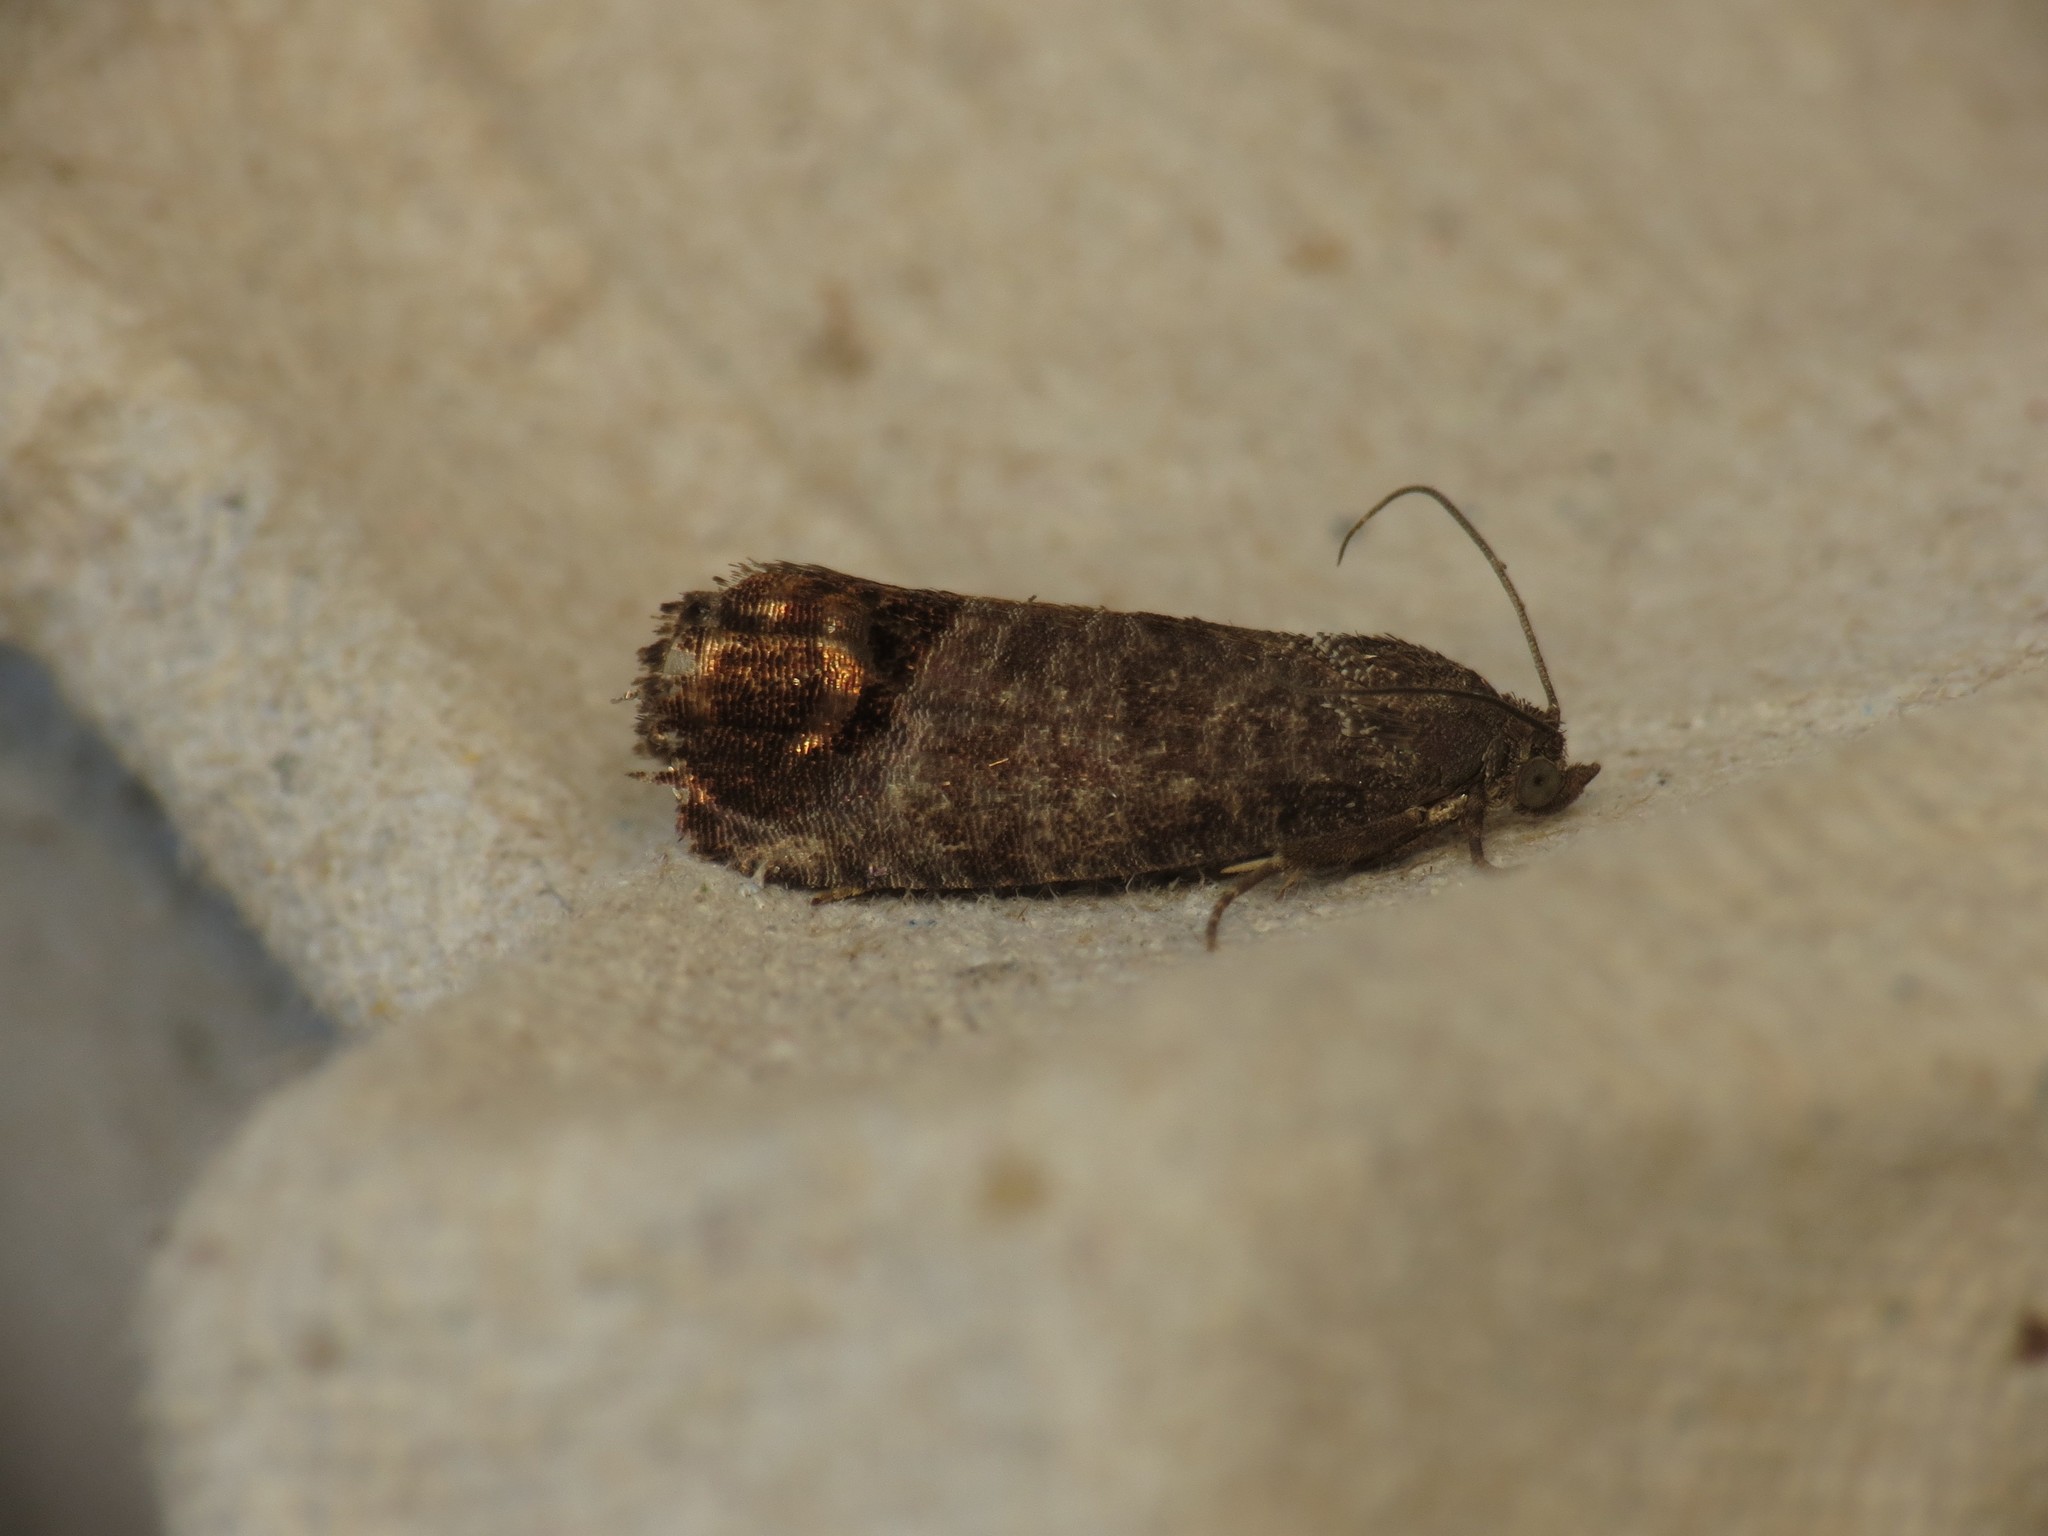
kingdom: Animalia
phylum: Arthropoda
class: Insecta
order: Lepidoptera
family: Tortricidae
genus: Cydia
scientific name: Cydia pomonella
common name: Codling moth
